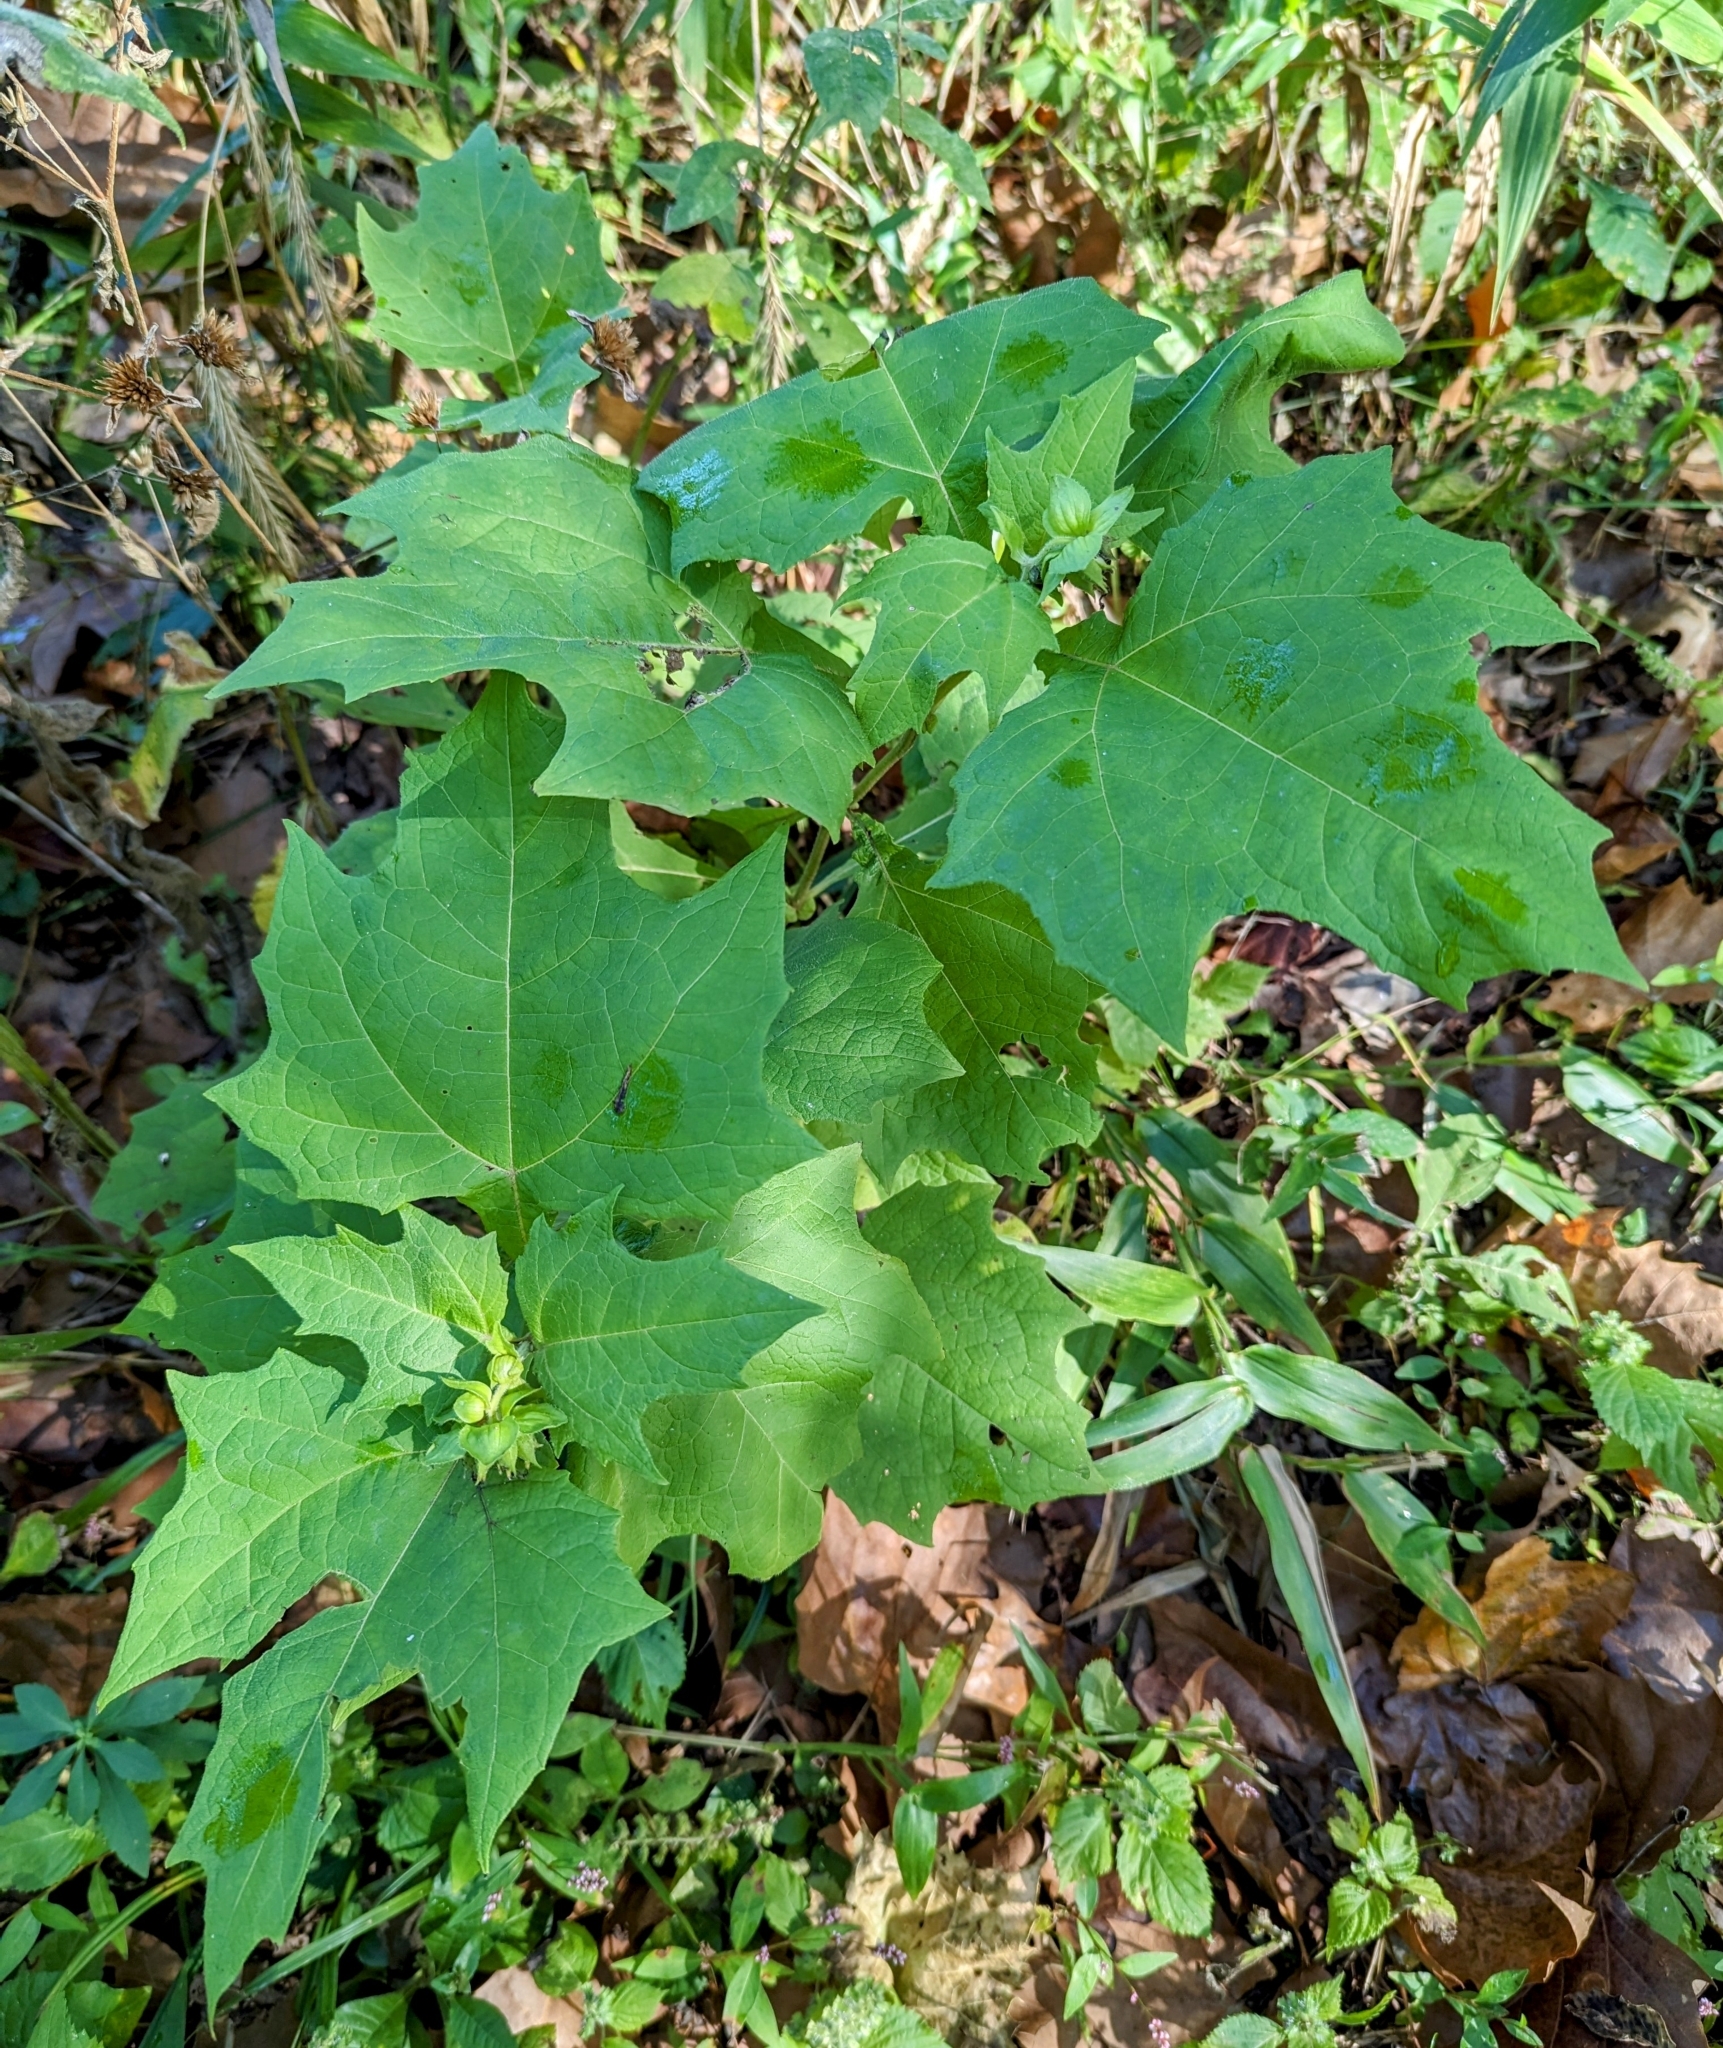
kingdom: Plantae
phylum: Tracheophyta
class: Magnoliopsida
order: Asterales
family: Asteraceae
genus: Smallanthus
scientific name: Smallanthus uvedalia
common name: Bear's-foot
